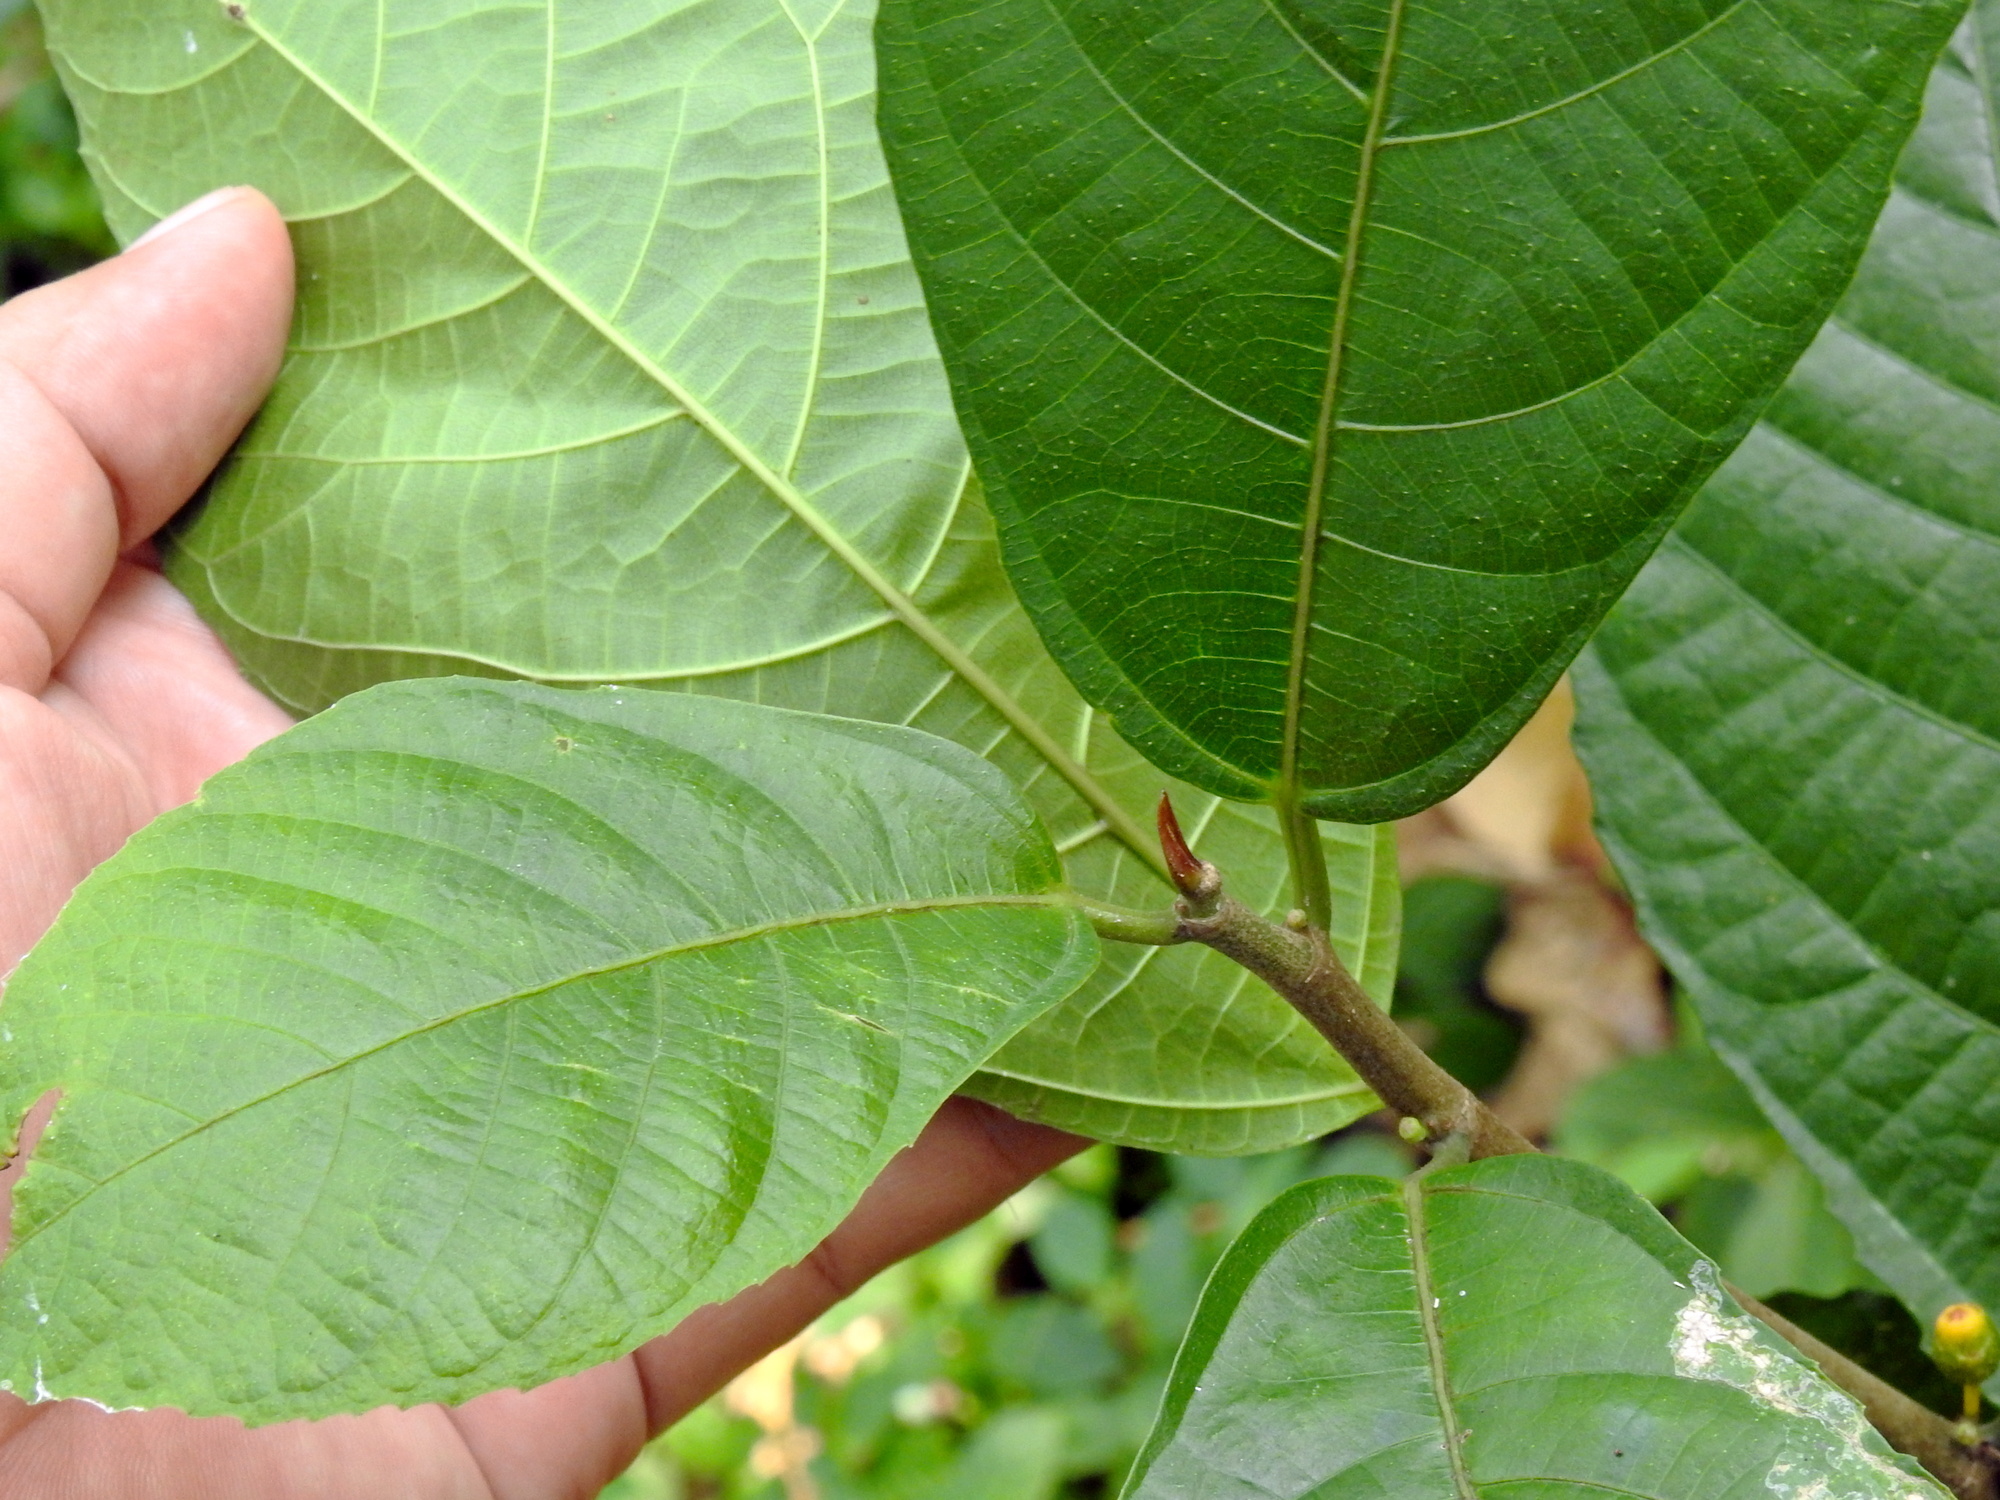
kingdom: Plantae
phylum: Tracheophyta
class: Magnoliopsida
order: Rosales
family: Moraceae
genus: Ficus
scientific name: Ficus montana
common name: Oak-leaf fig
